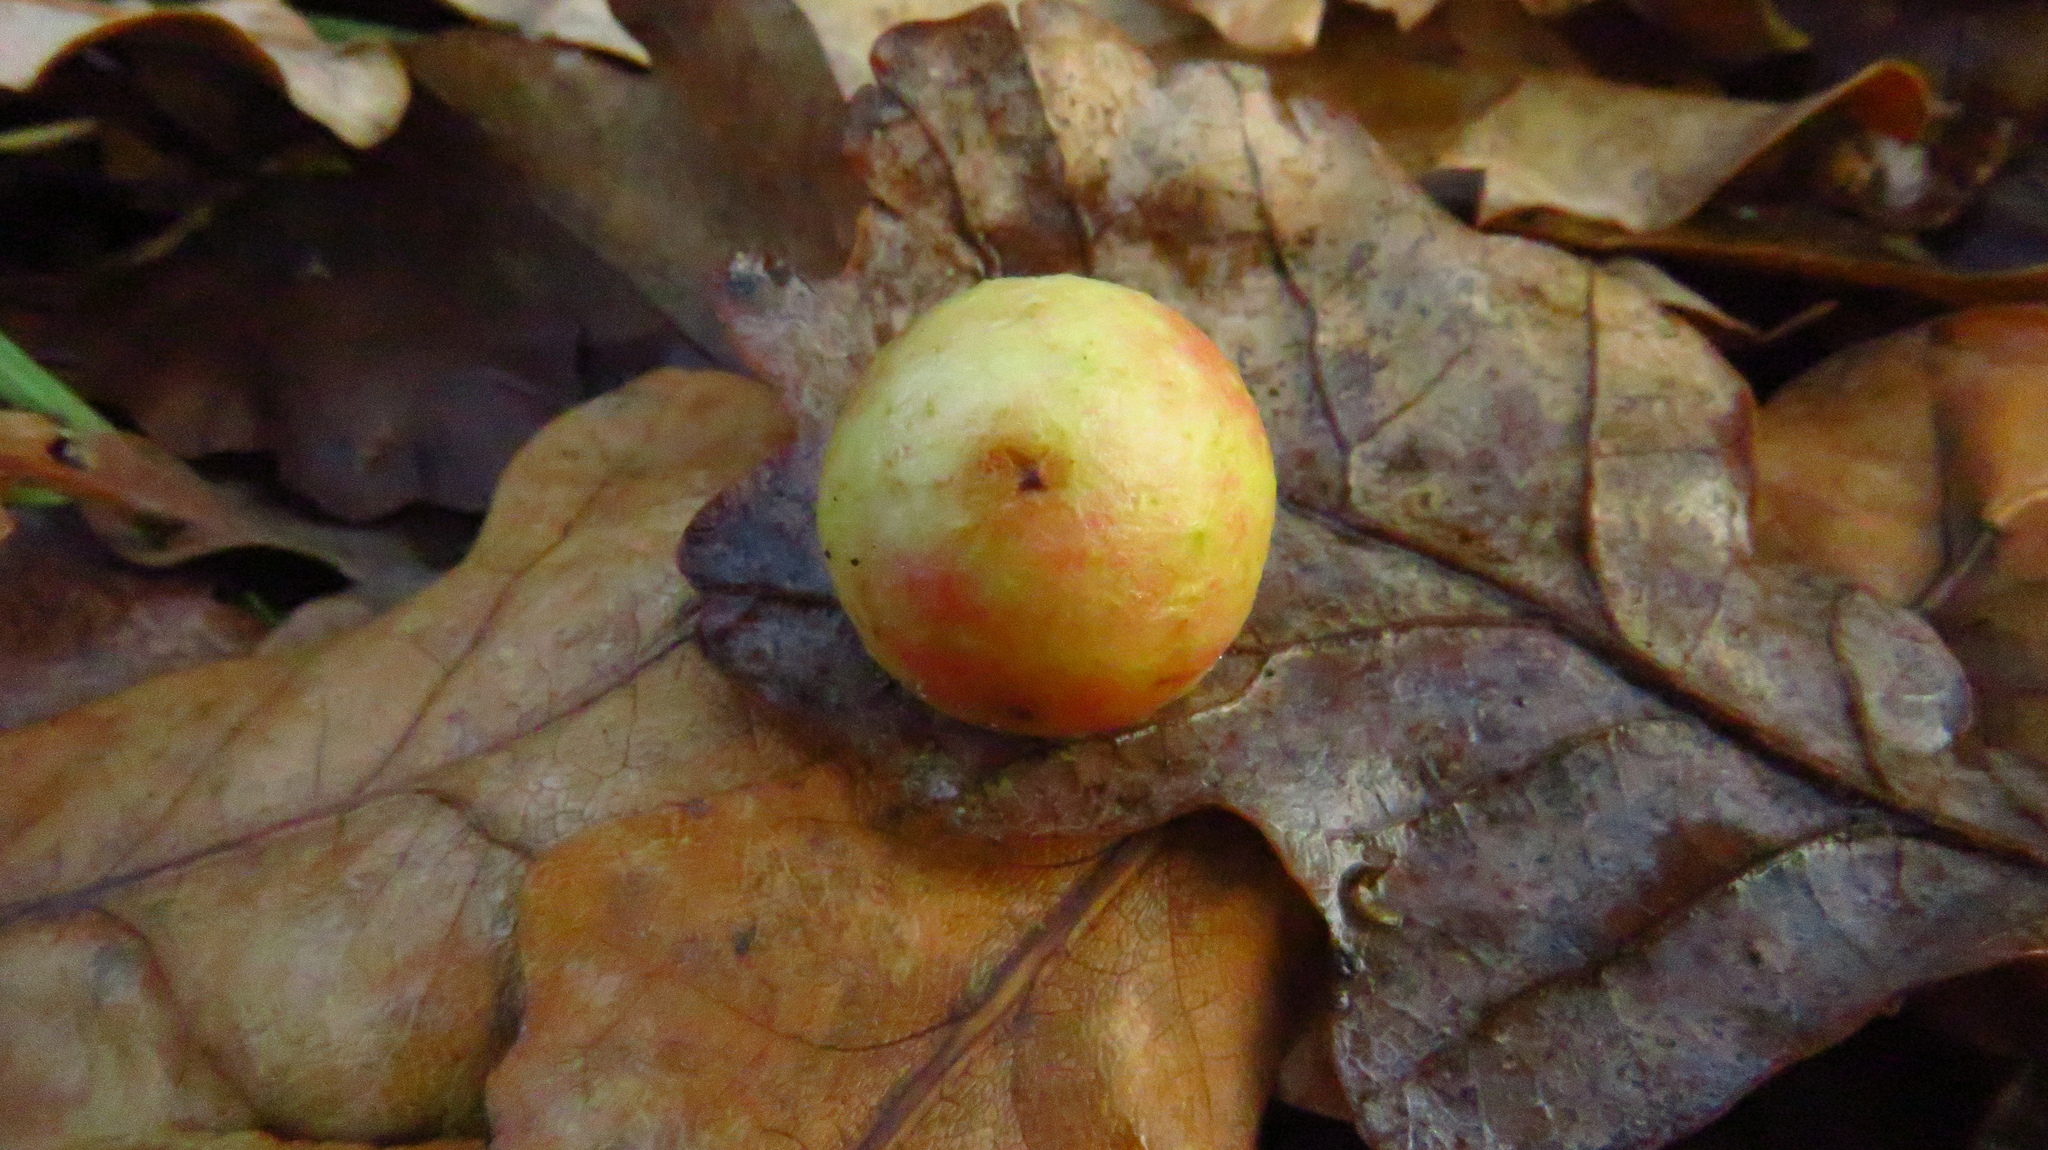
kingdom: Animalia
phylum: Arthropoda
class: Insecta
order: Hymenoptera
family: Cynipidae
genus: Cynips
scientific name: Cynips quercusfolii
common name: Cherry gall
